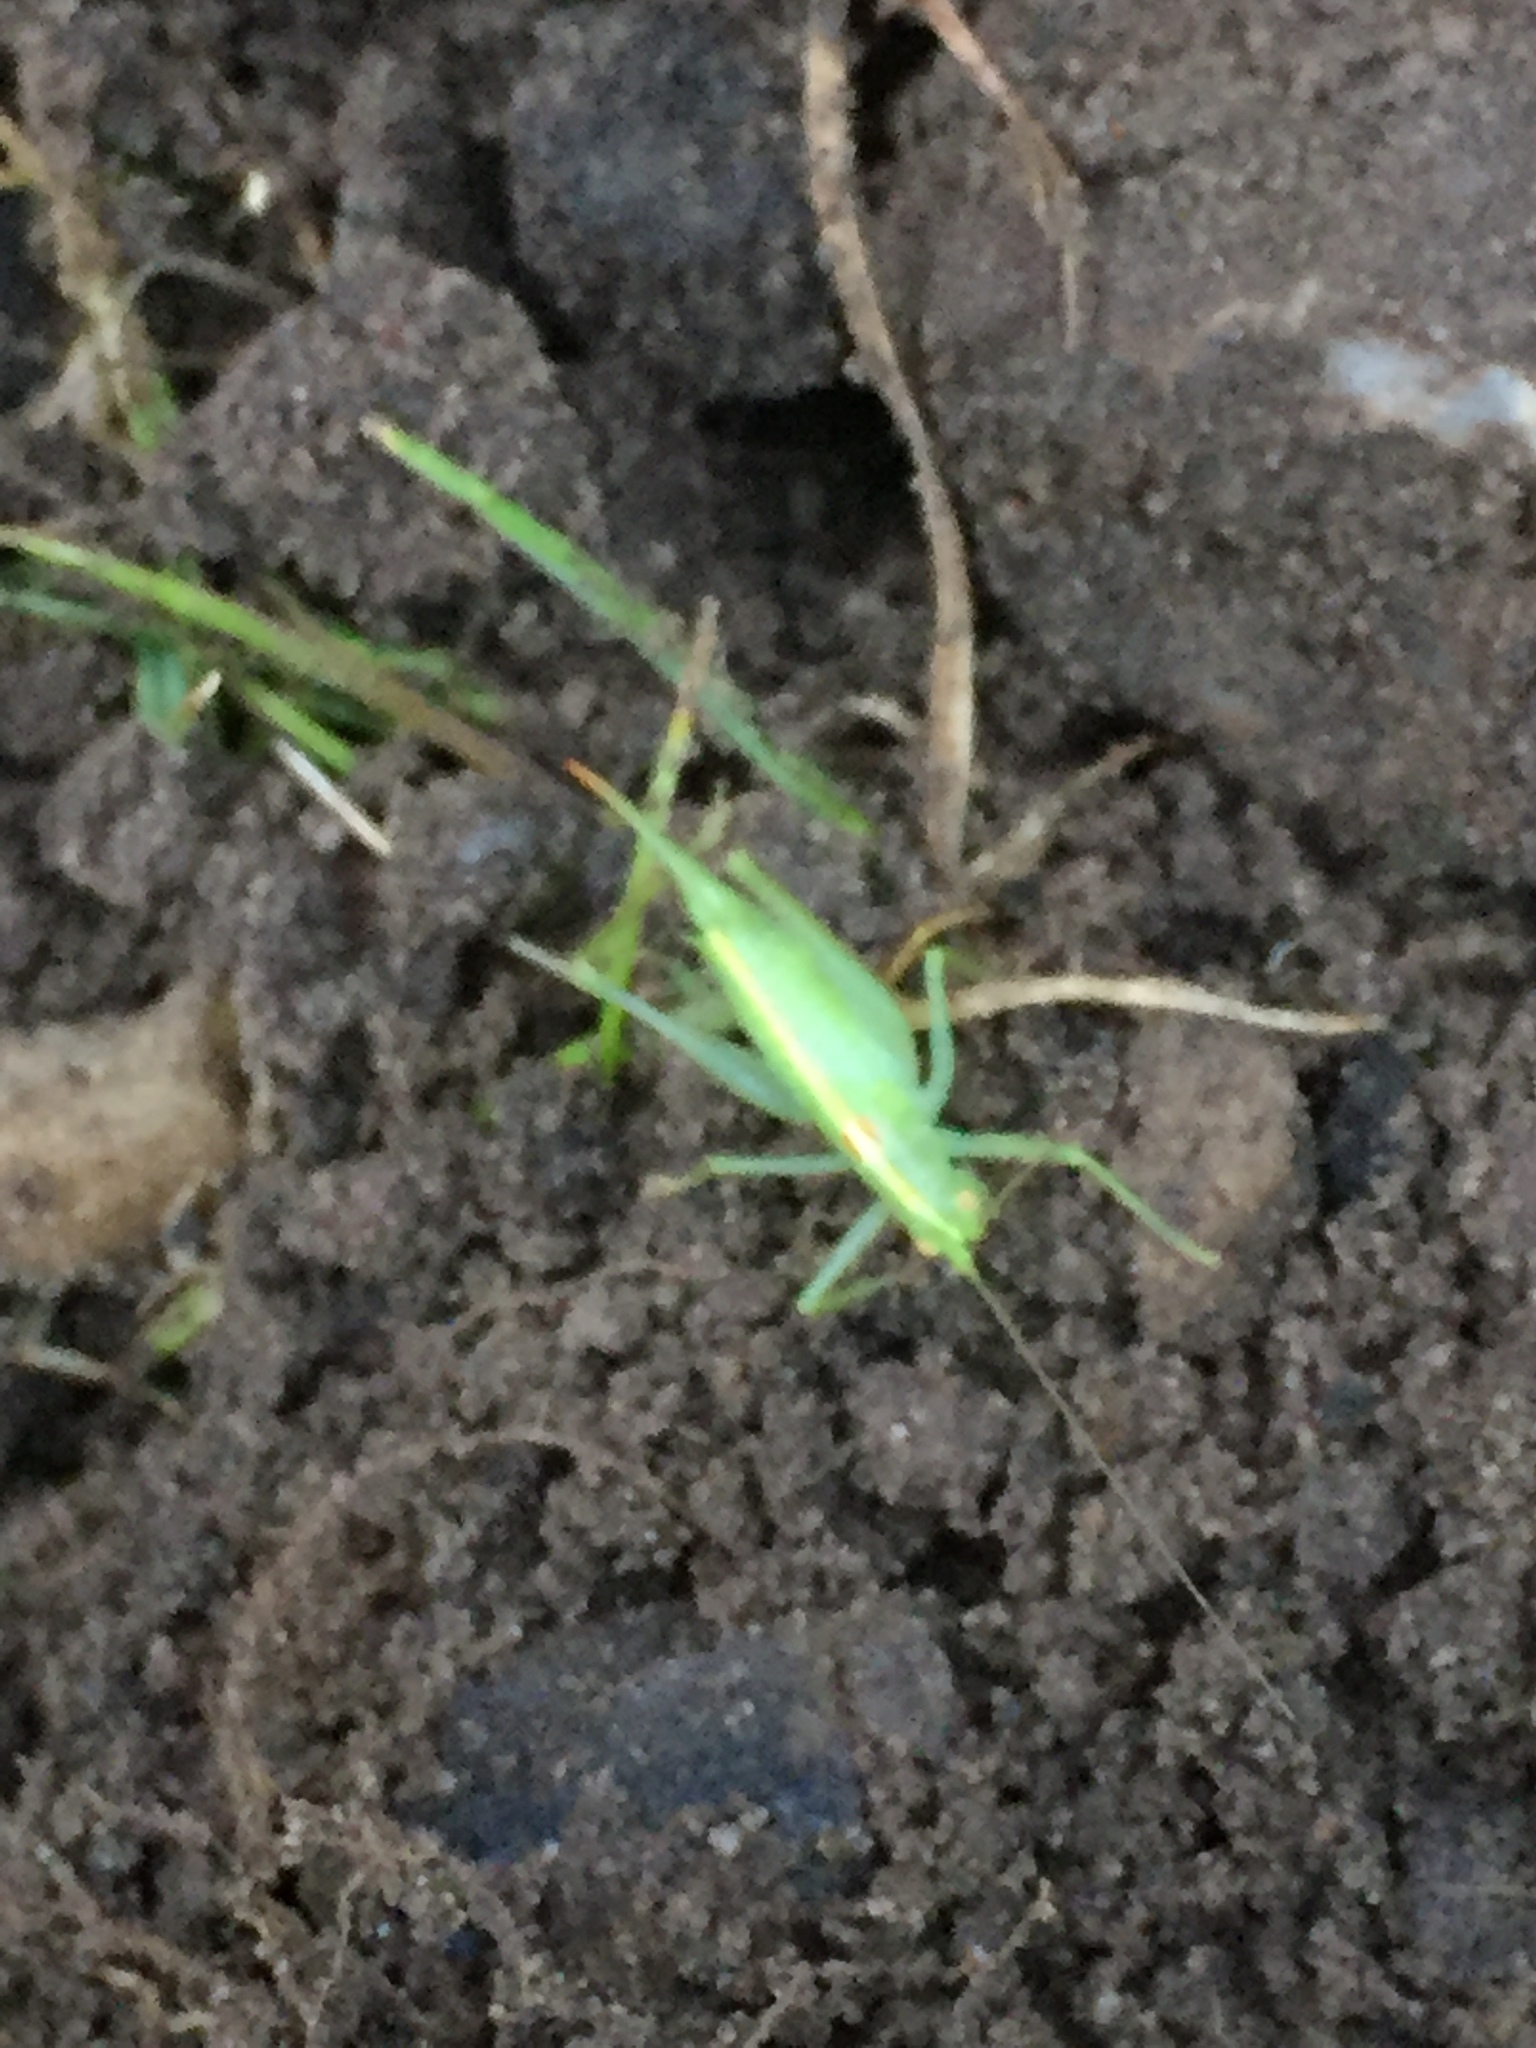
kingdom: Animalia
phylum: Arthropoda
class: Insecta
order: Orthoptera
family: Tettigoniidae
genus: Meconema
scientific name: Meconema thalassinum
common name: Oak bush-cricket
